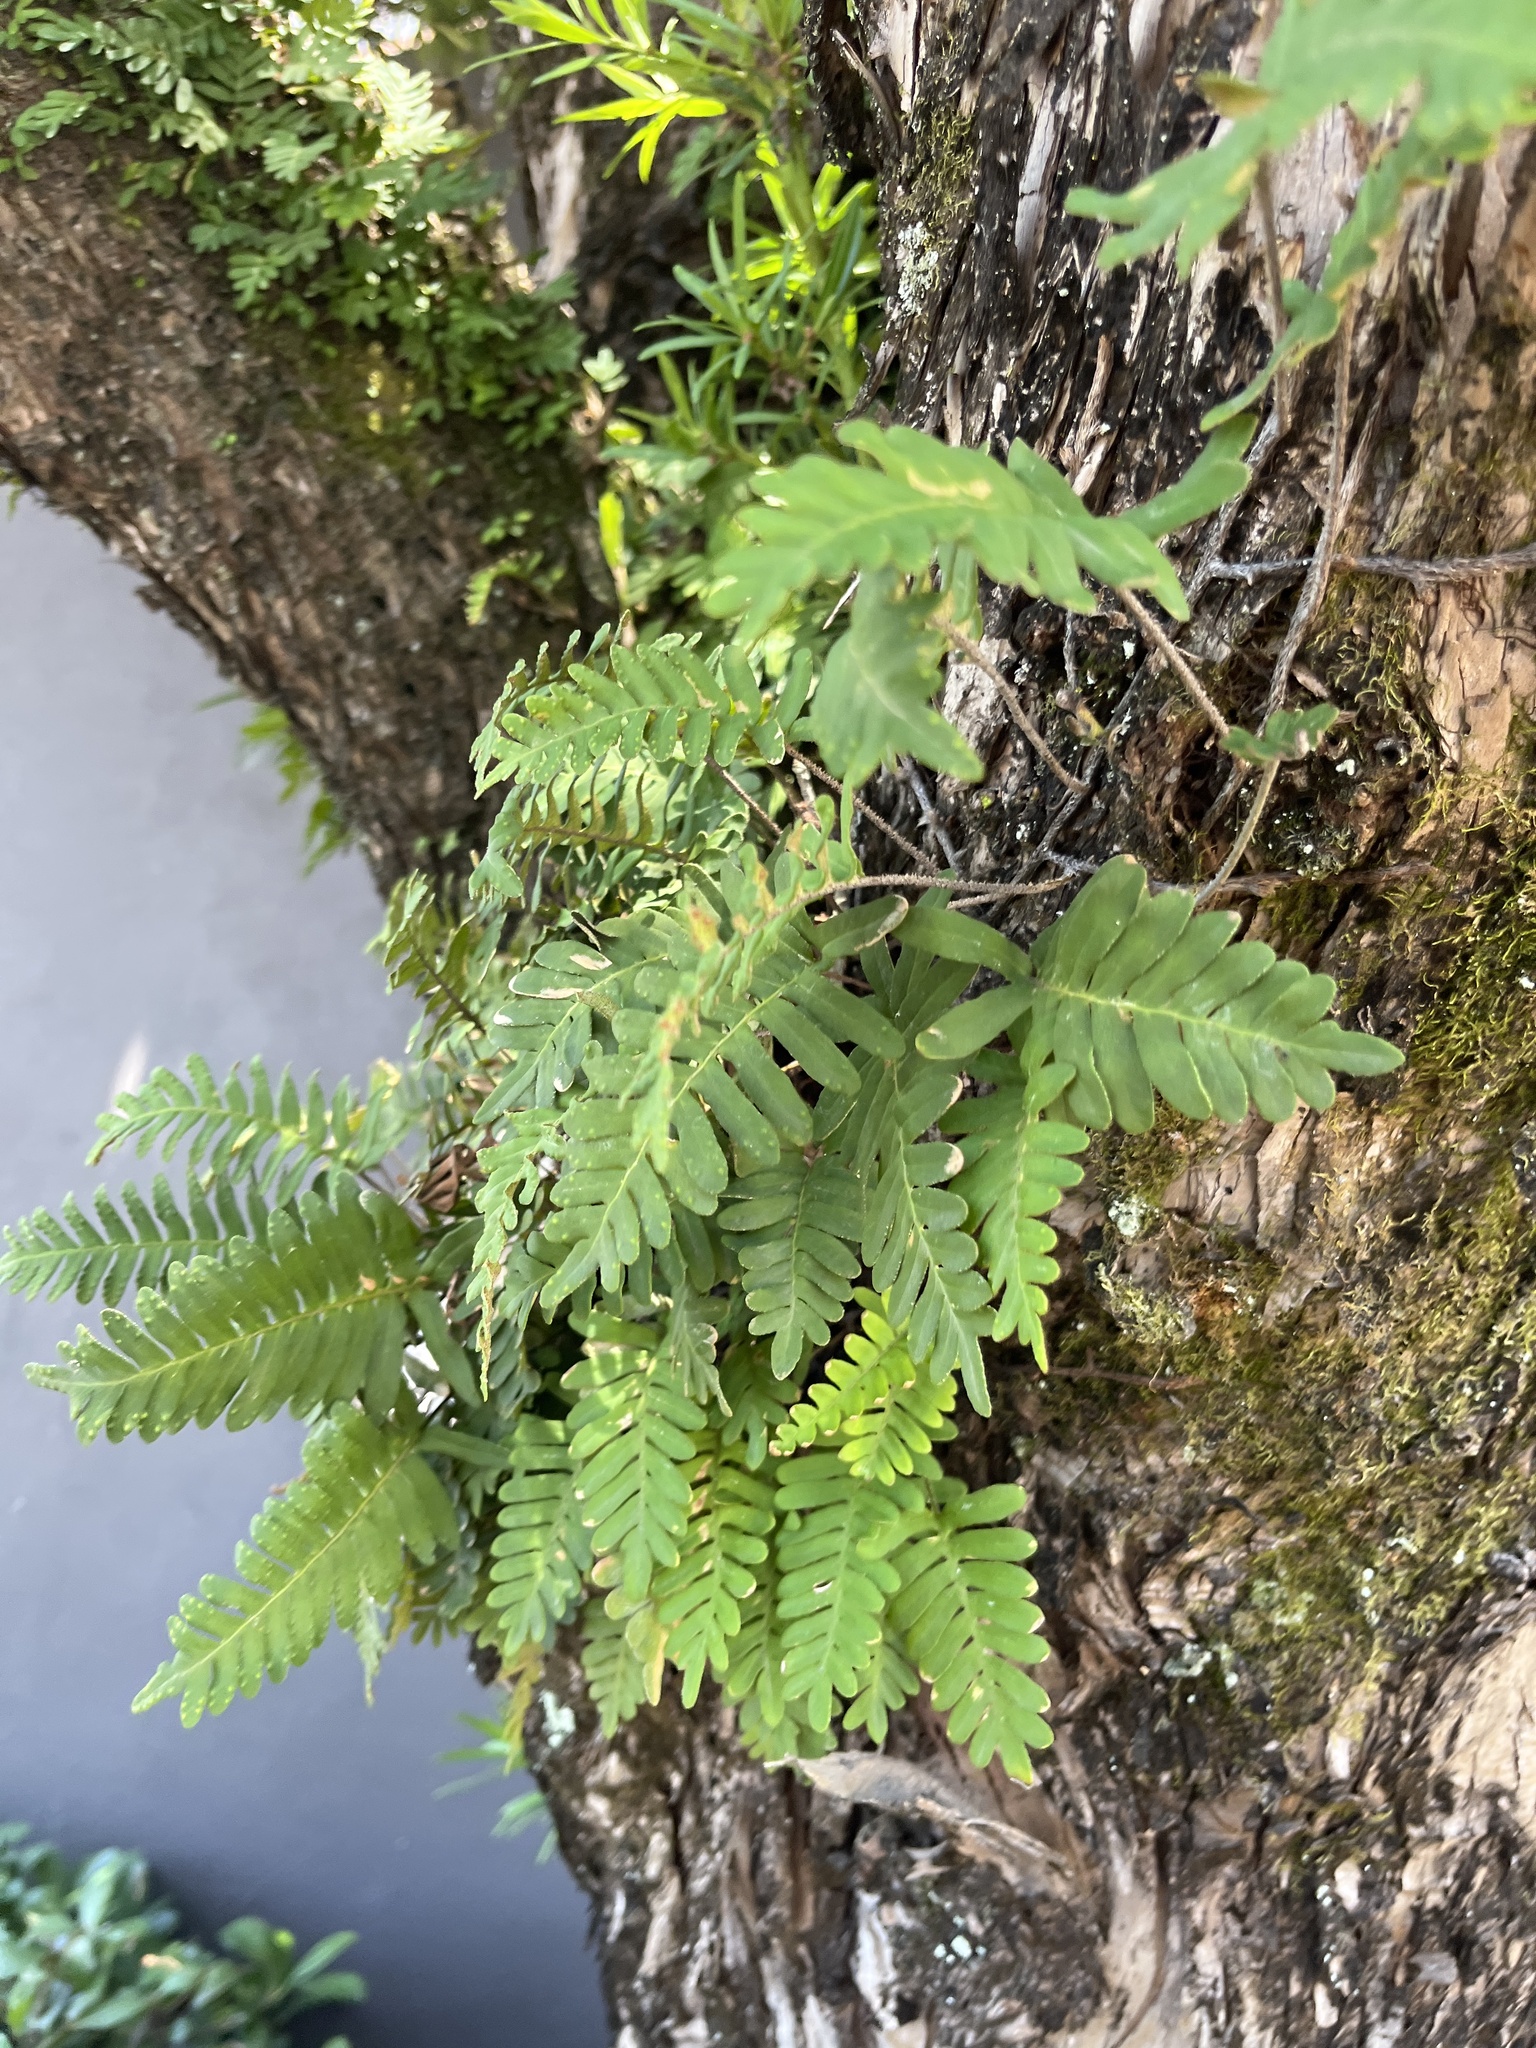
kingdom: Plantae
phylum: Tracheophyta
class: Polypodiopsida
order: Polypodiales
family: Polypodiaceae
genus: Pleopeltis
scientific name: Pleopeltis michauxiana
